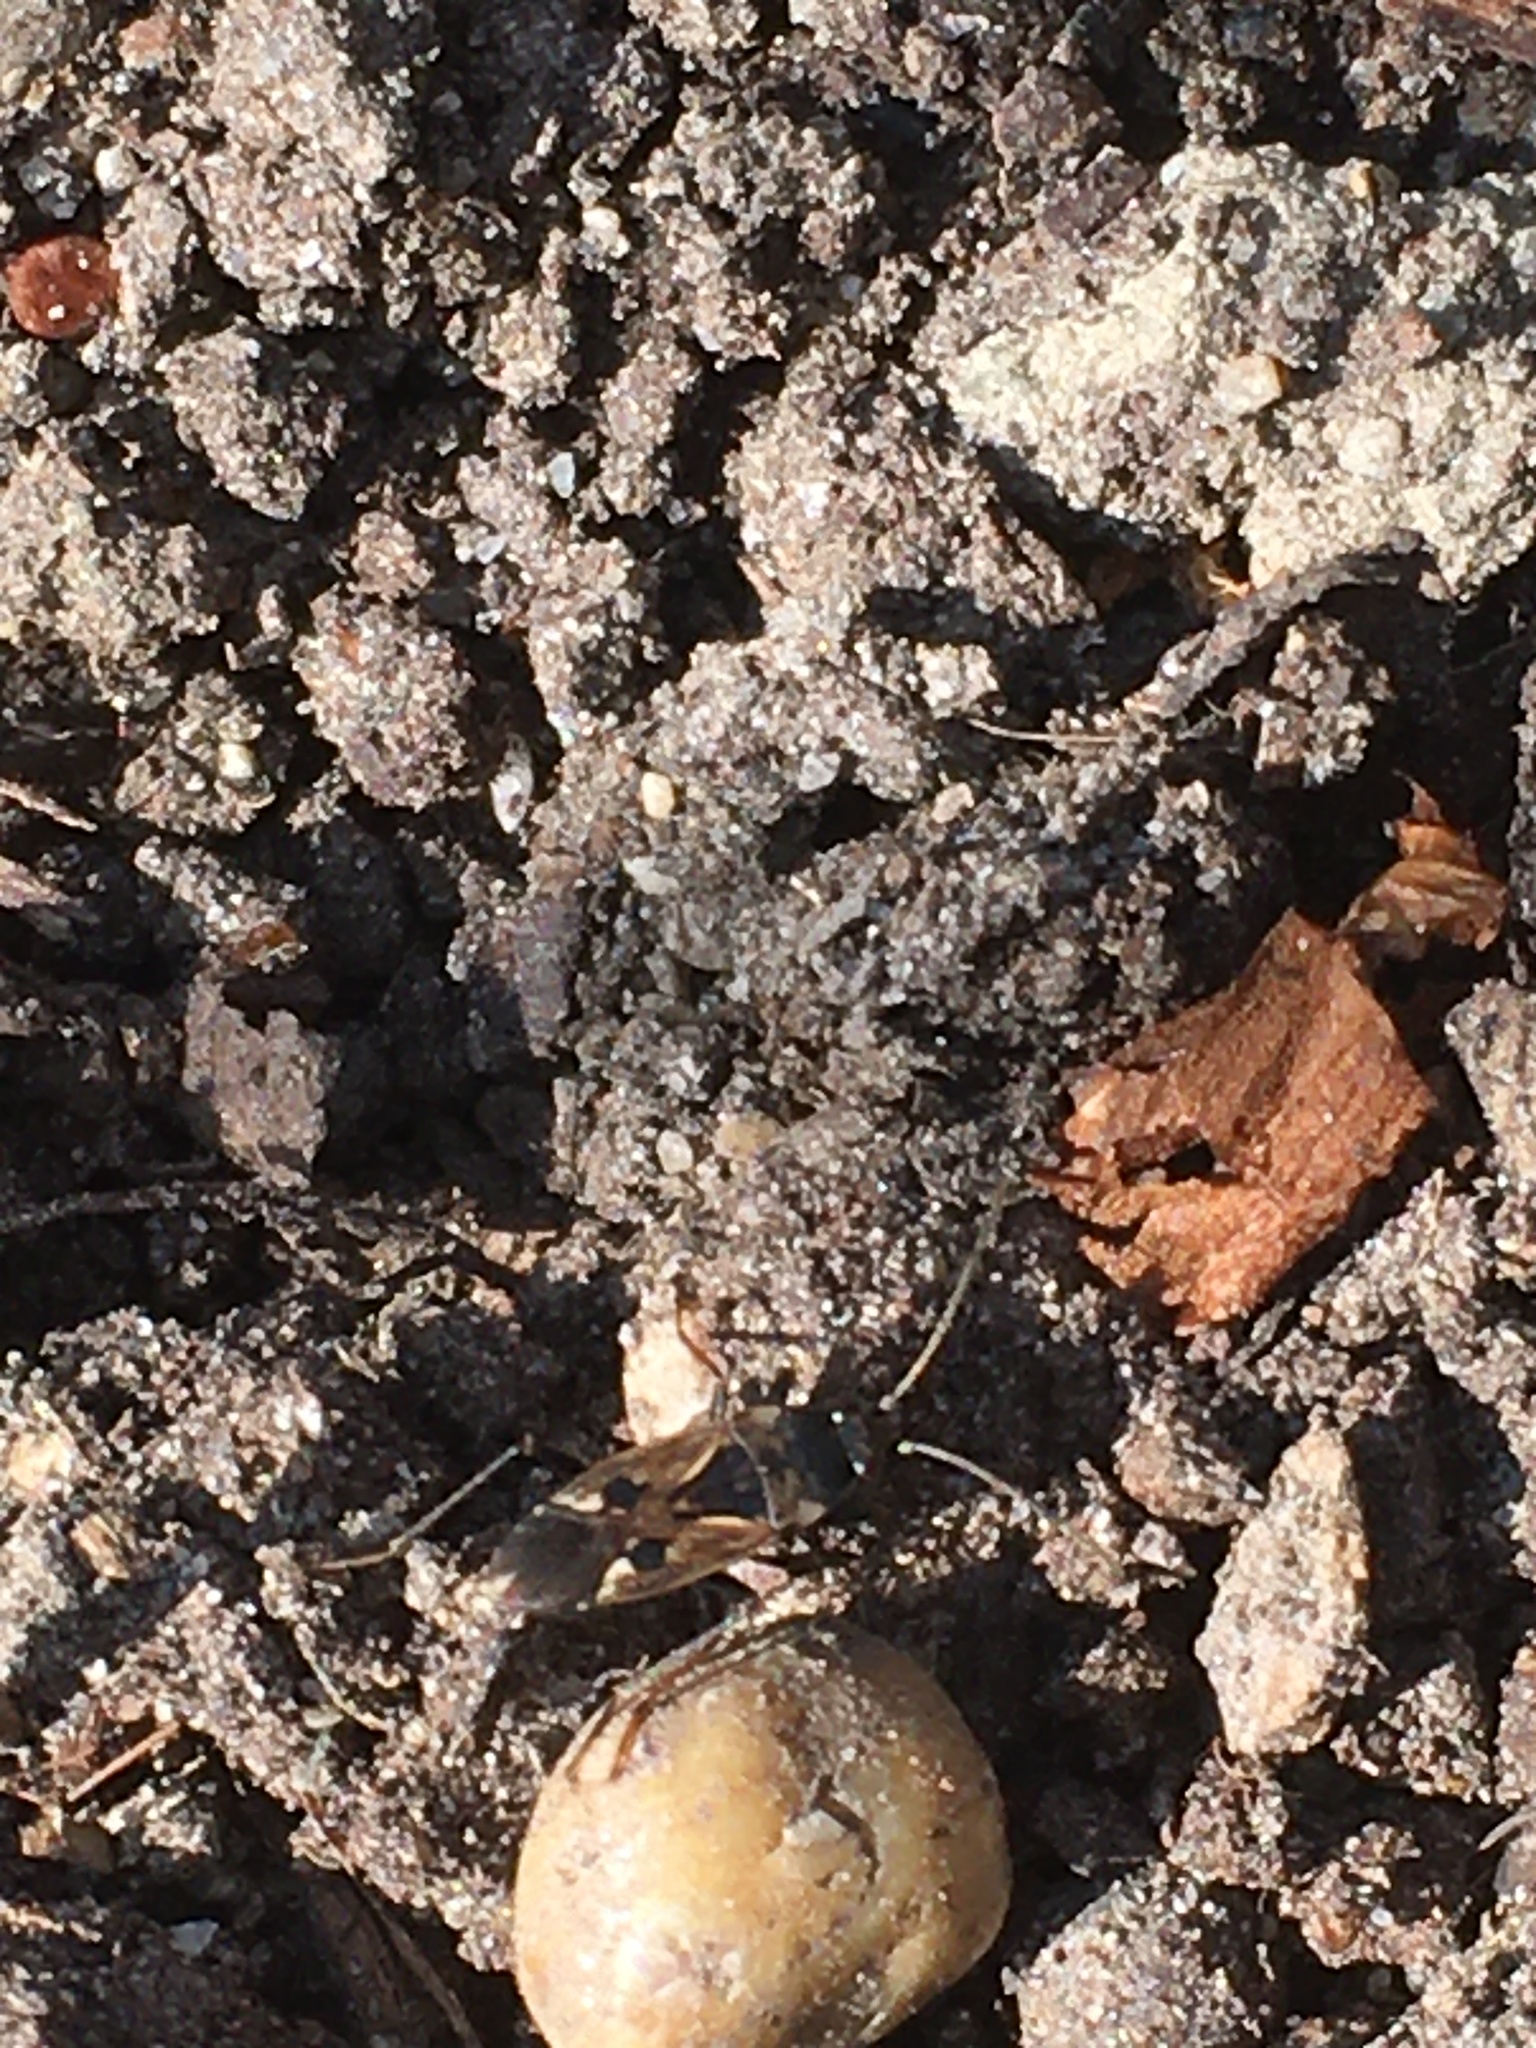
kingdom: Animalia
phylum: Arthropoda
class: Insecta
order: Hemiptera
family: Rhyparochromidae
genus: Rhyparochromus
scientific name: Rhyparochromus vulgaris
